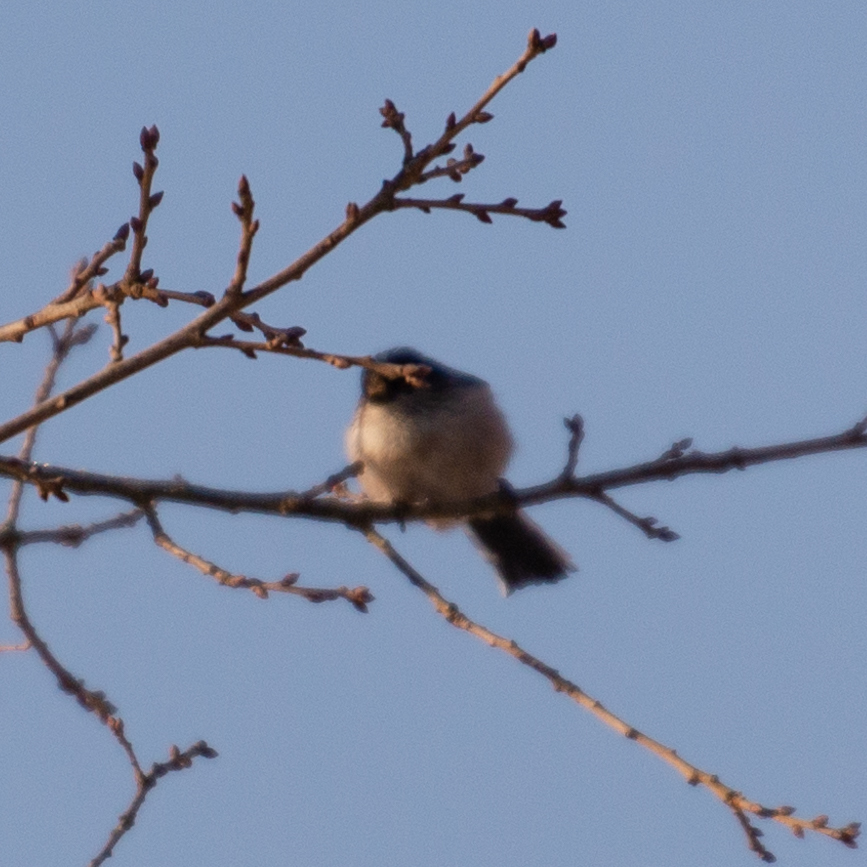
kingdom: Animalia
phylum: Chordata
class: Aves
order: Passeriformes
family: Aegithalidae
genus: Aegithalos
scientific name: Aegithalos caudatus
